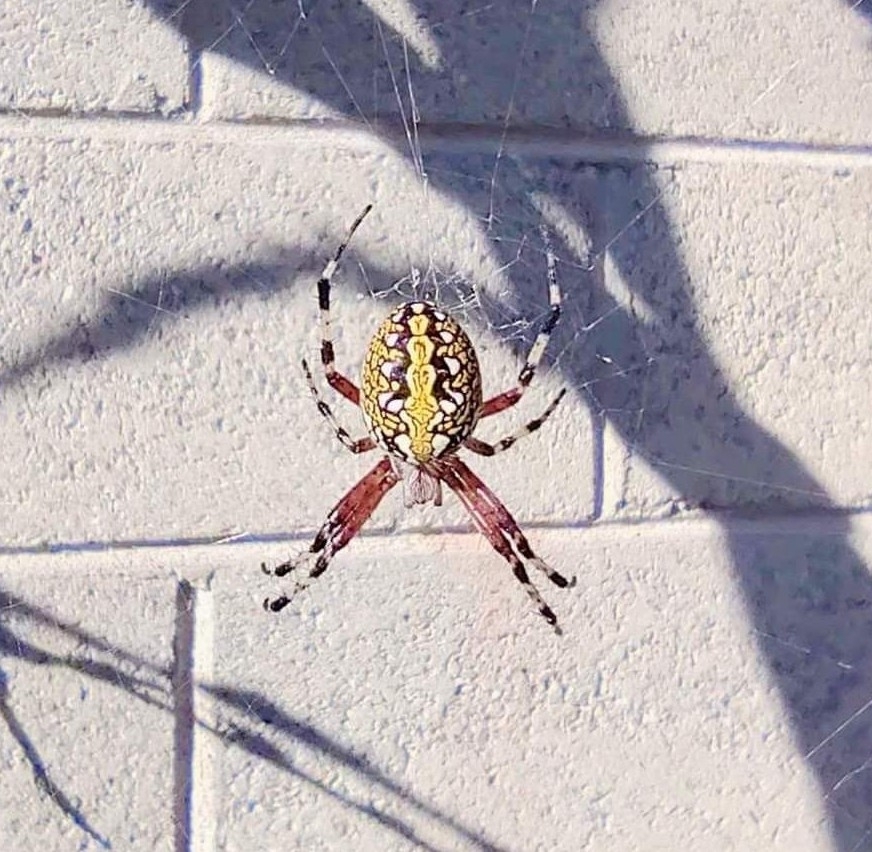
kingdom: Animalia
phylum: Arthropoda
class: Arachnida
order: Araneae
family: Araneidae
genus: Neoscona
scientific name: Neoscona oaxacensis
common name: Orb weavers
